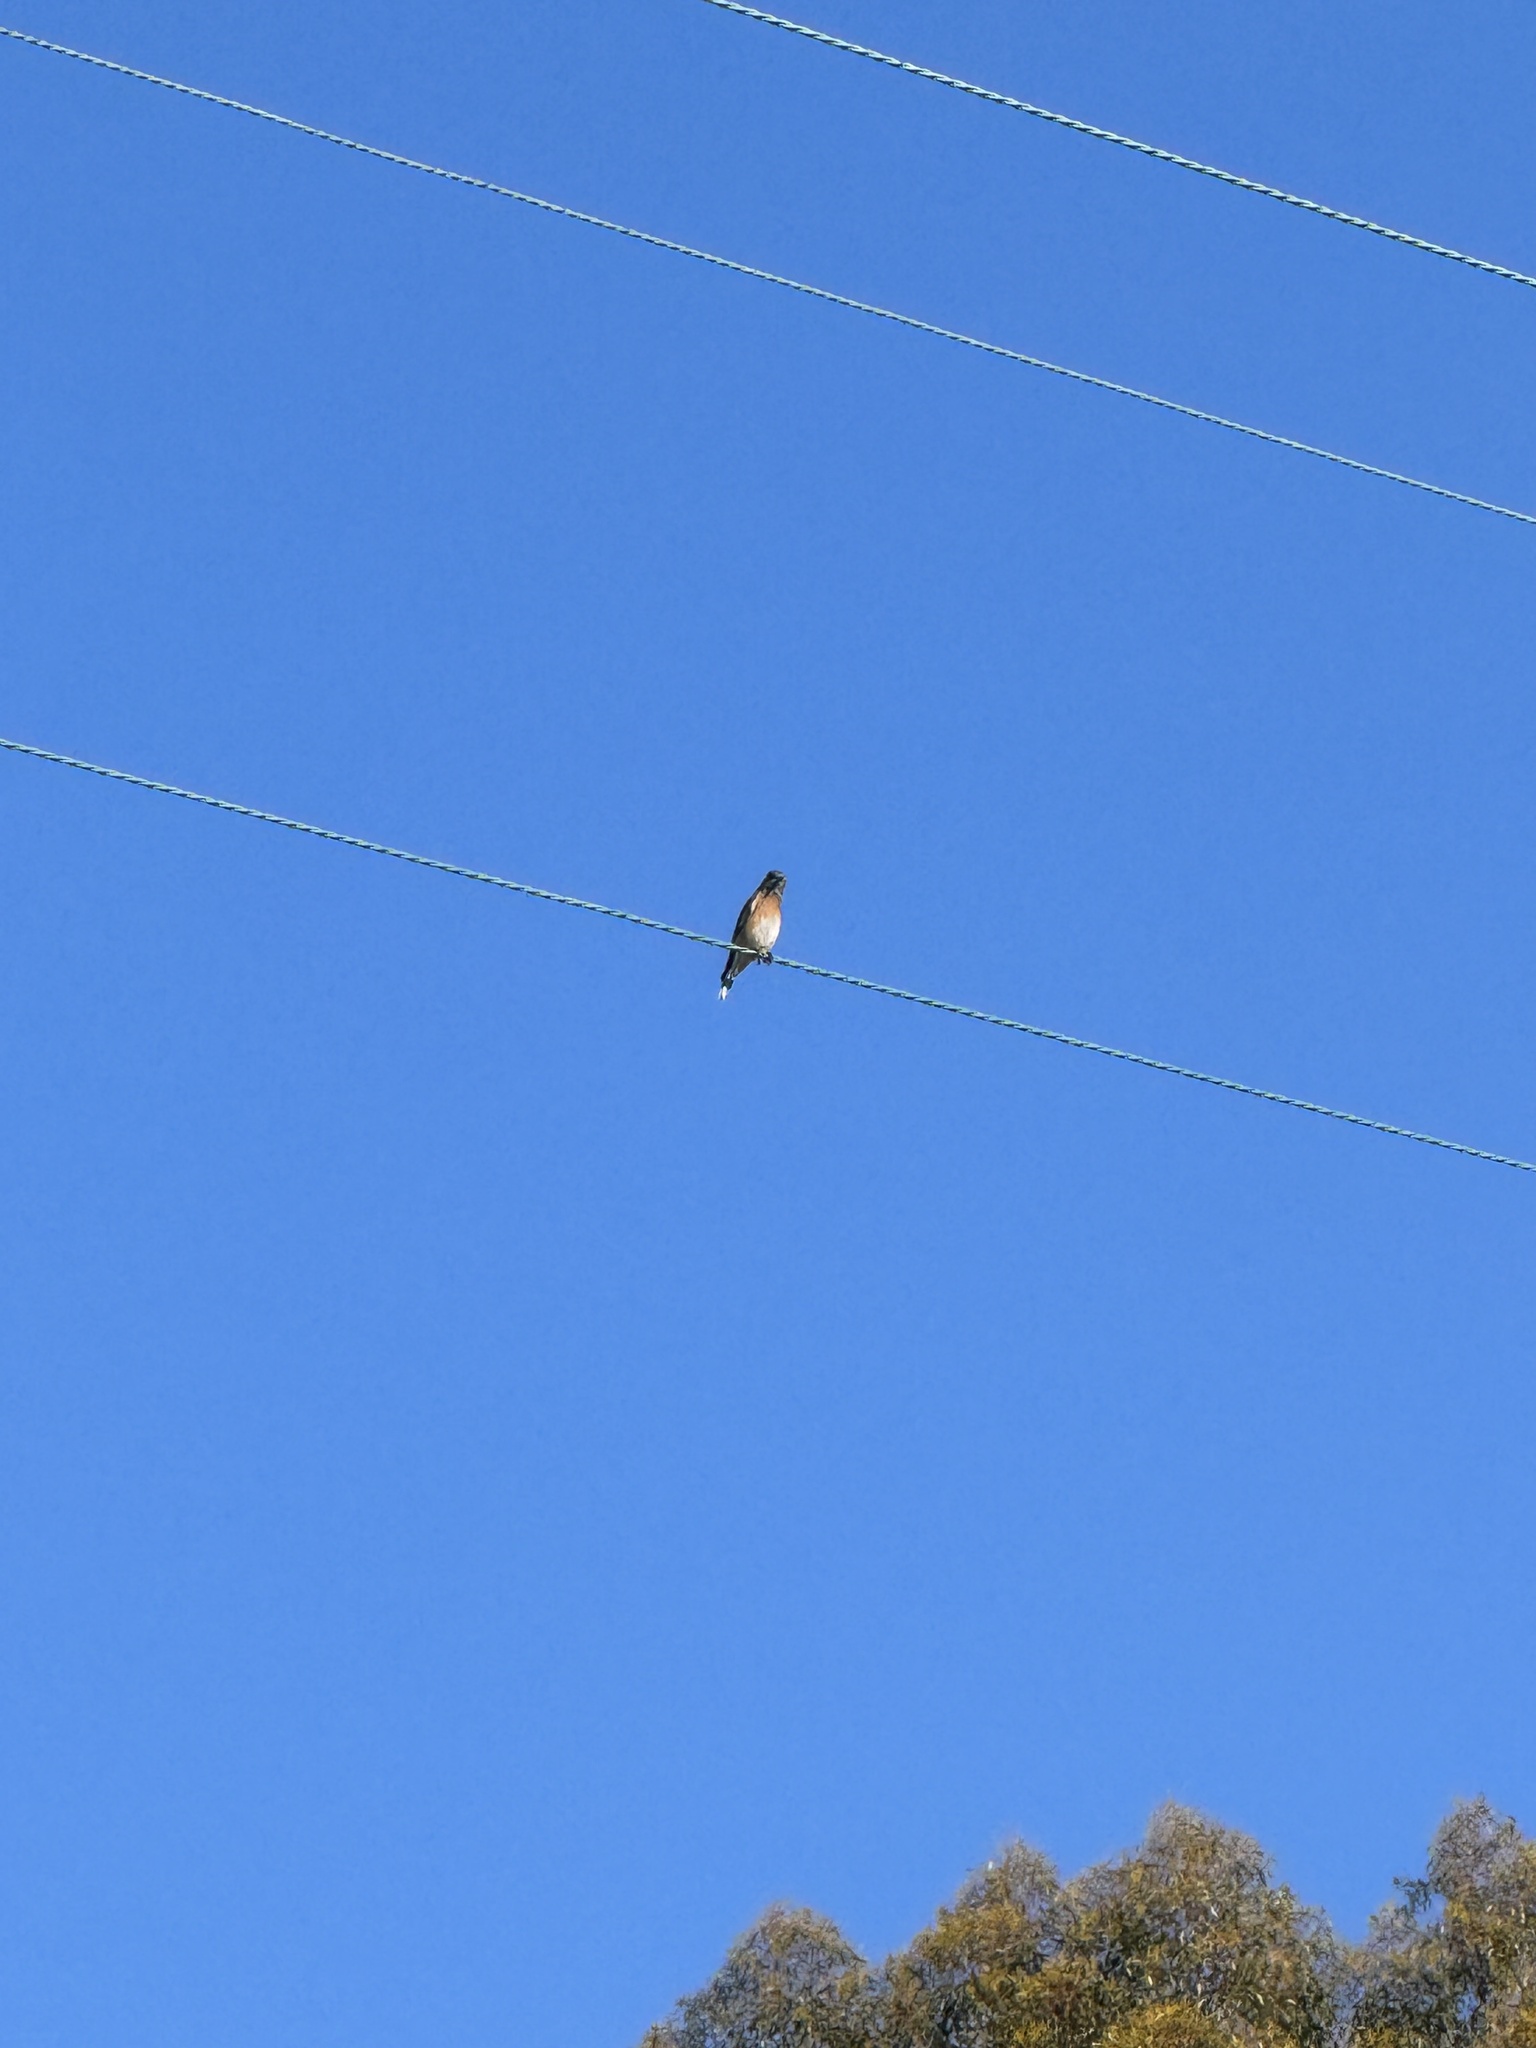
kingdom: Animalia
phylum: Chordata
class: Aves
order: Passeriformes
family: Turdidae
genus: Sialia
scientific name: Sialia mexicana
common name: Western bluebird
